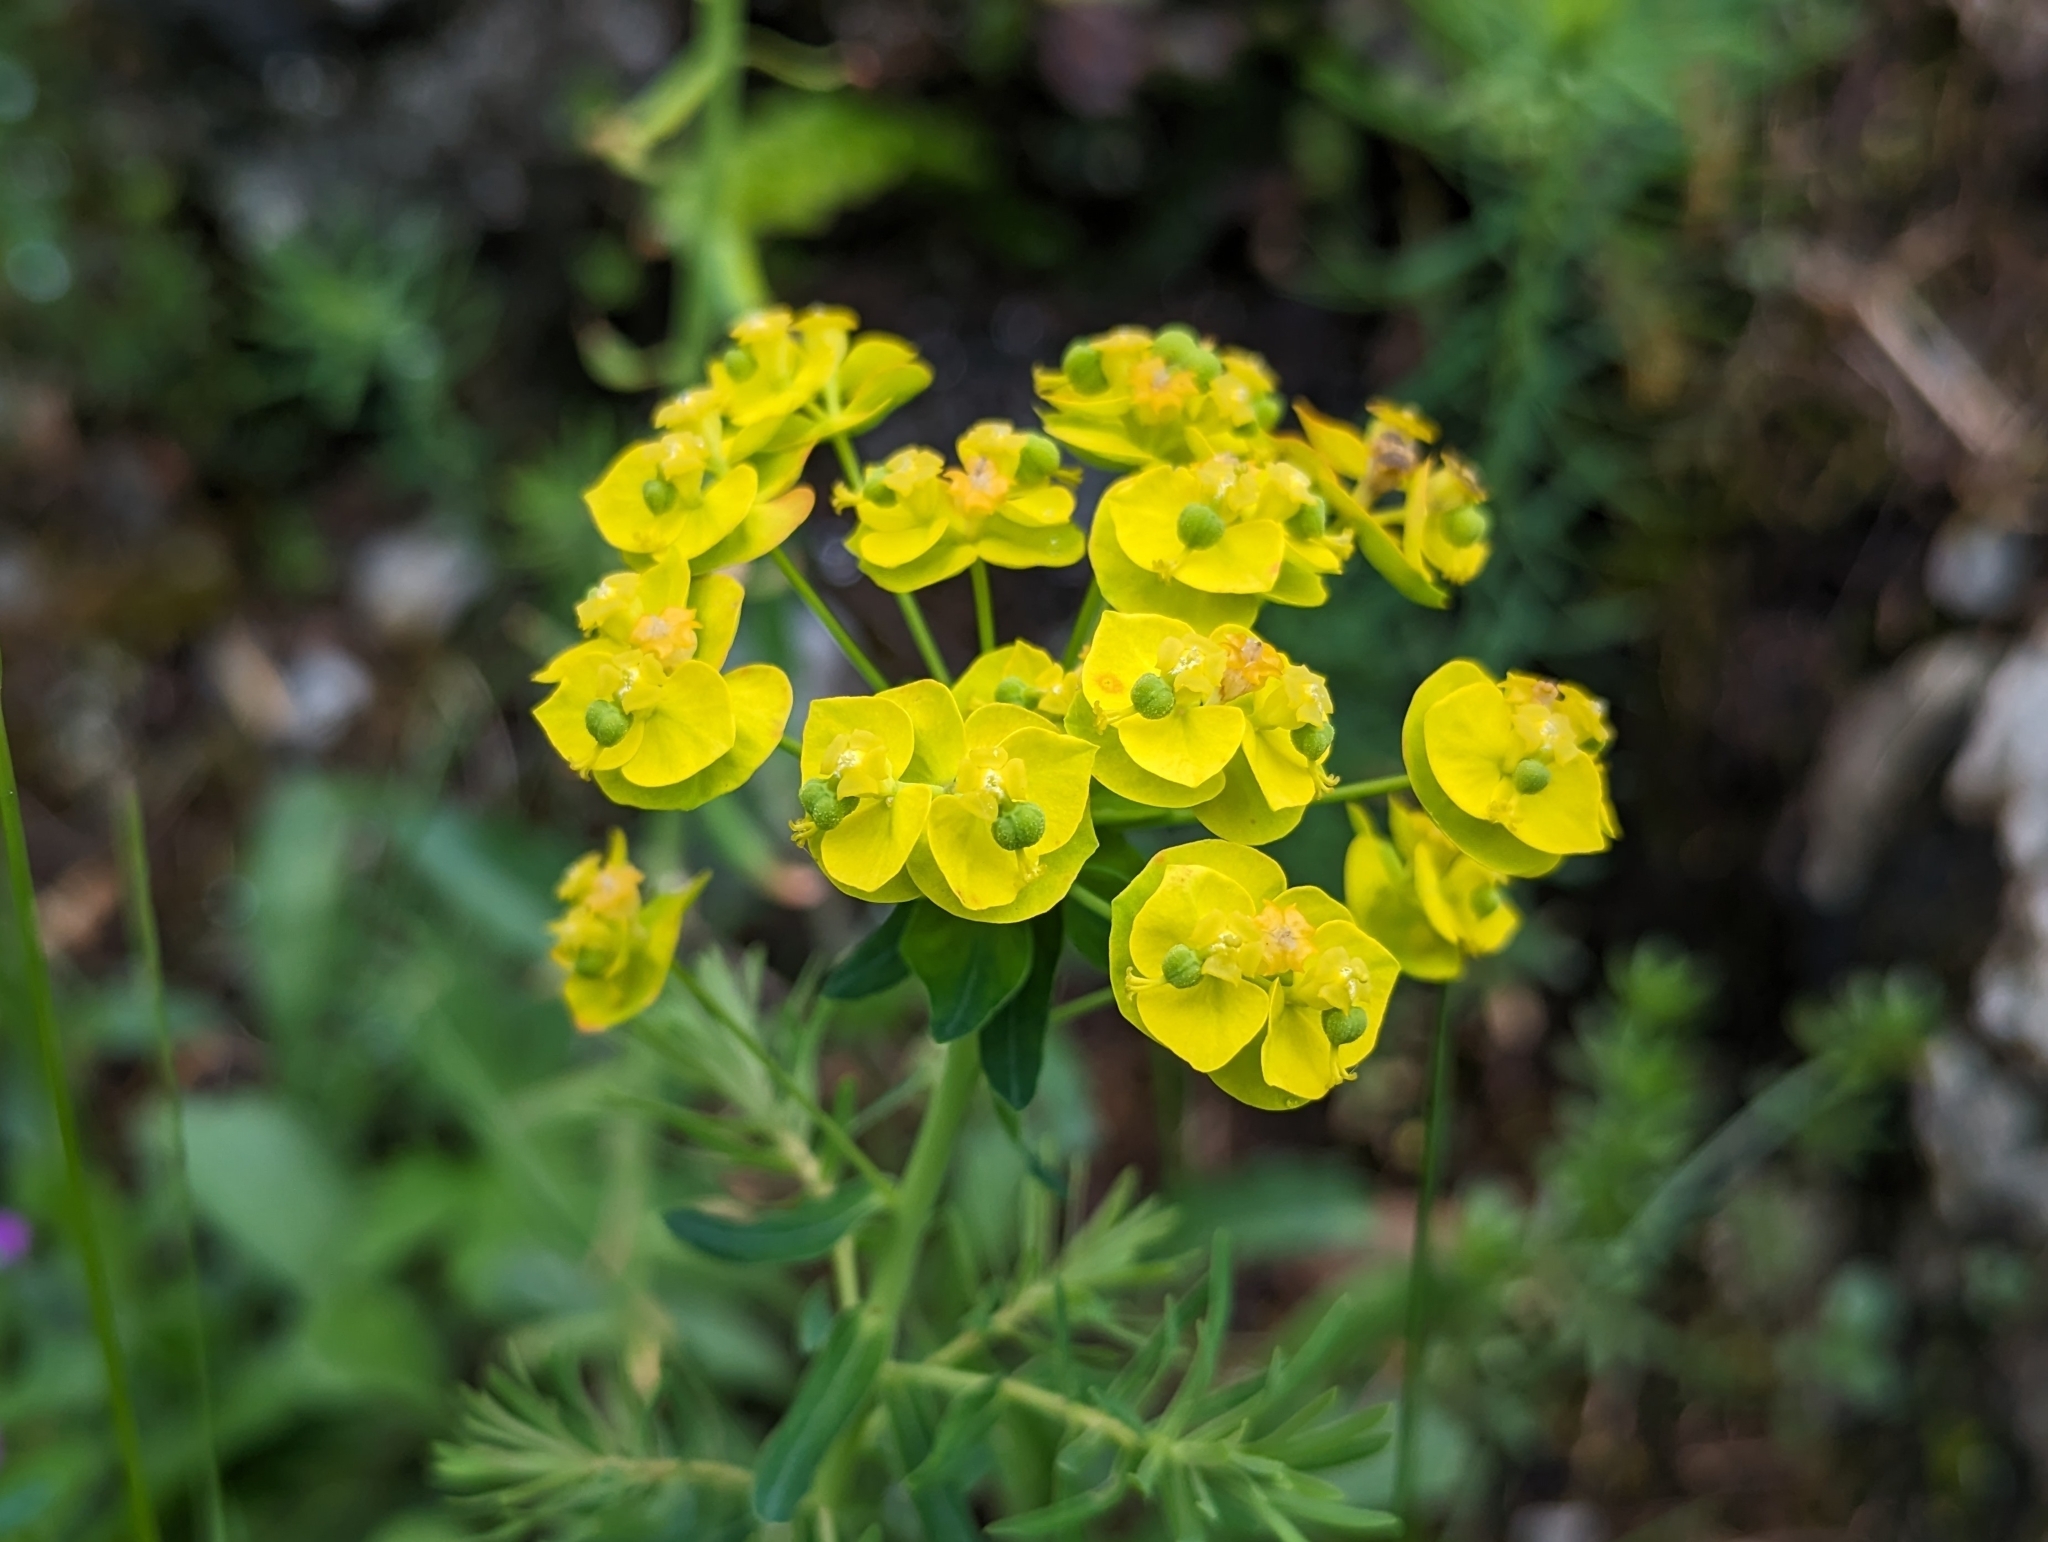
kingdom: Plantae
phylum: Tracheophyta
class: Magnoliopsida
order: Malpighiales
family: Euphorbiaceae
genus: Euphorbia
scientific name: Euphorbia cyparissias
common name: Cypress spurge
